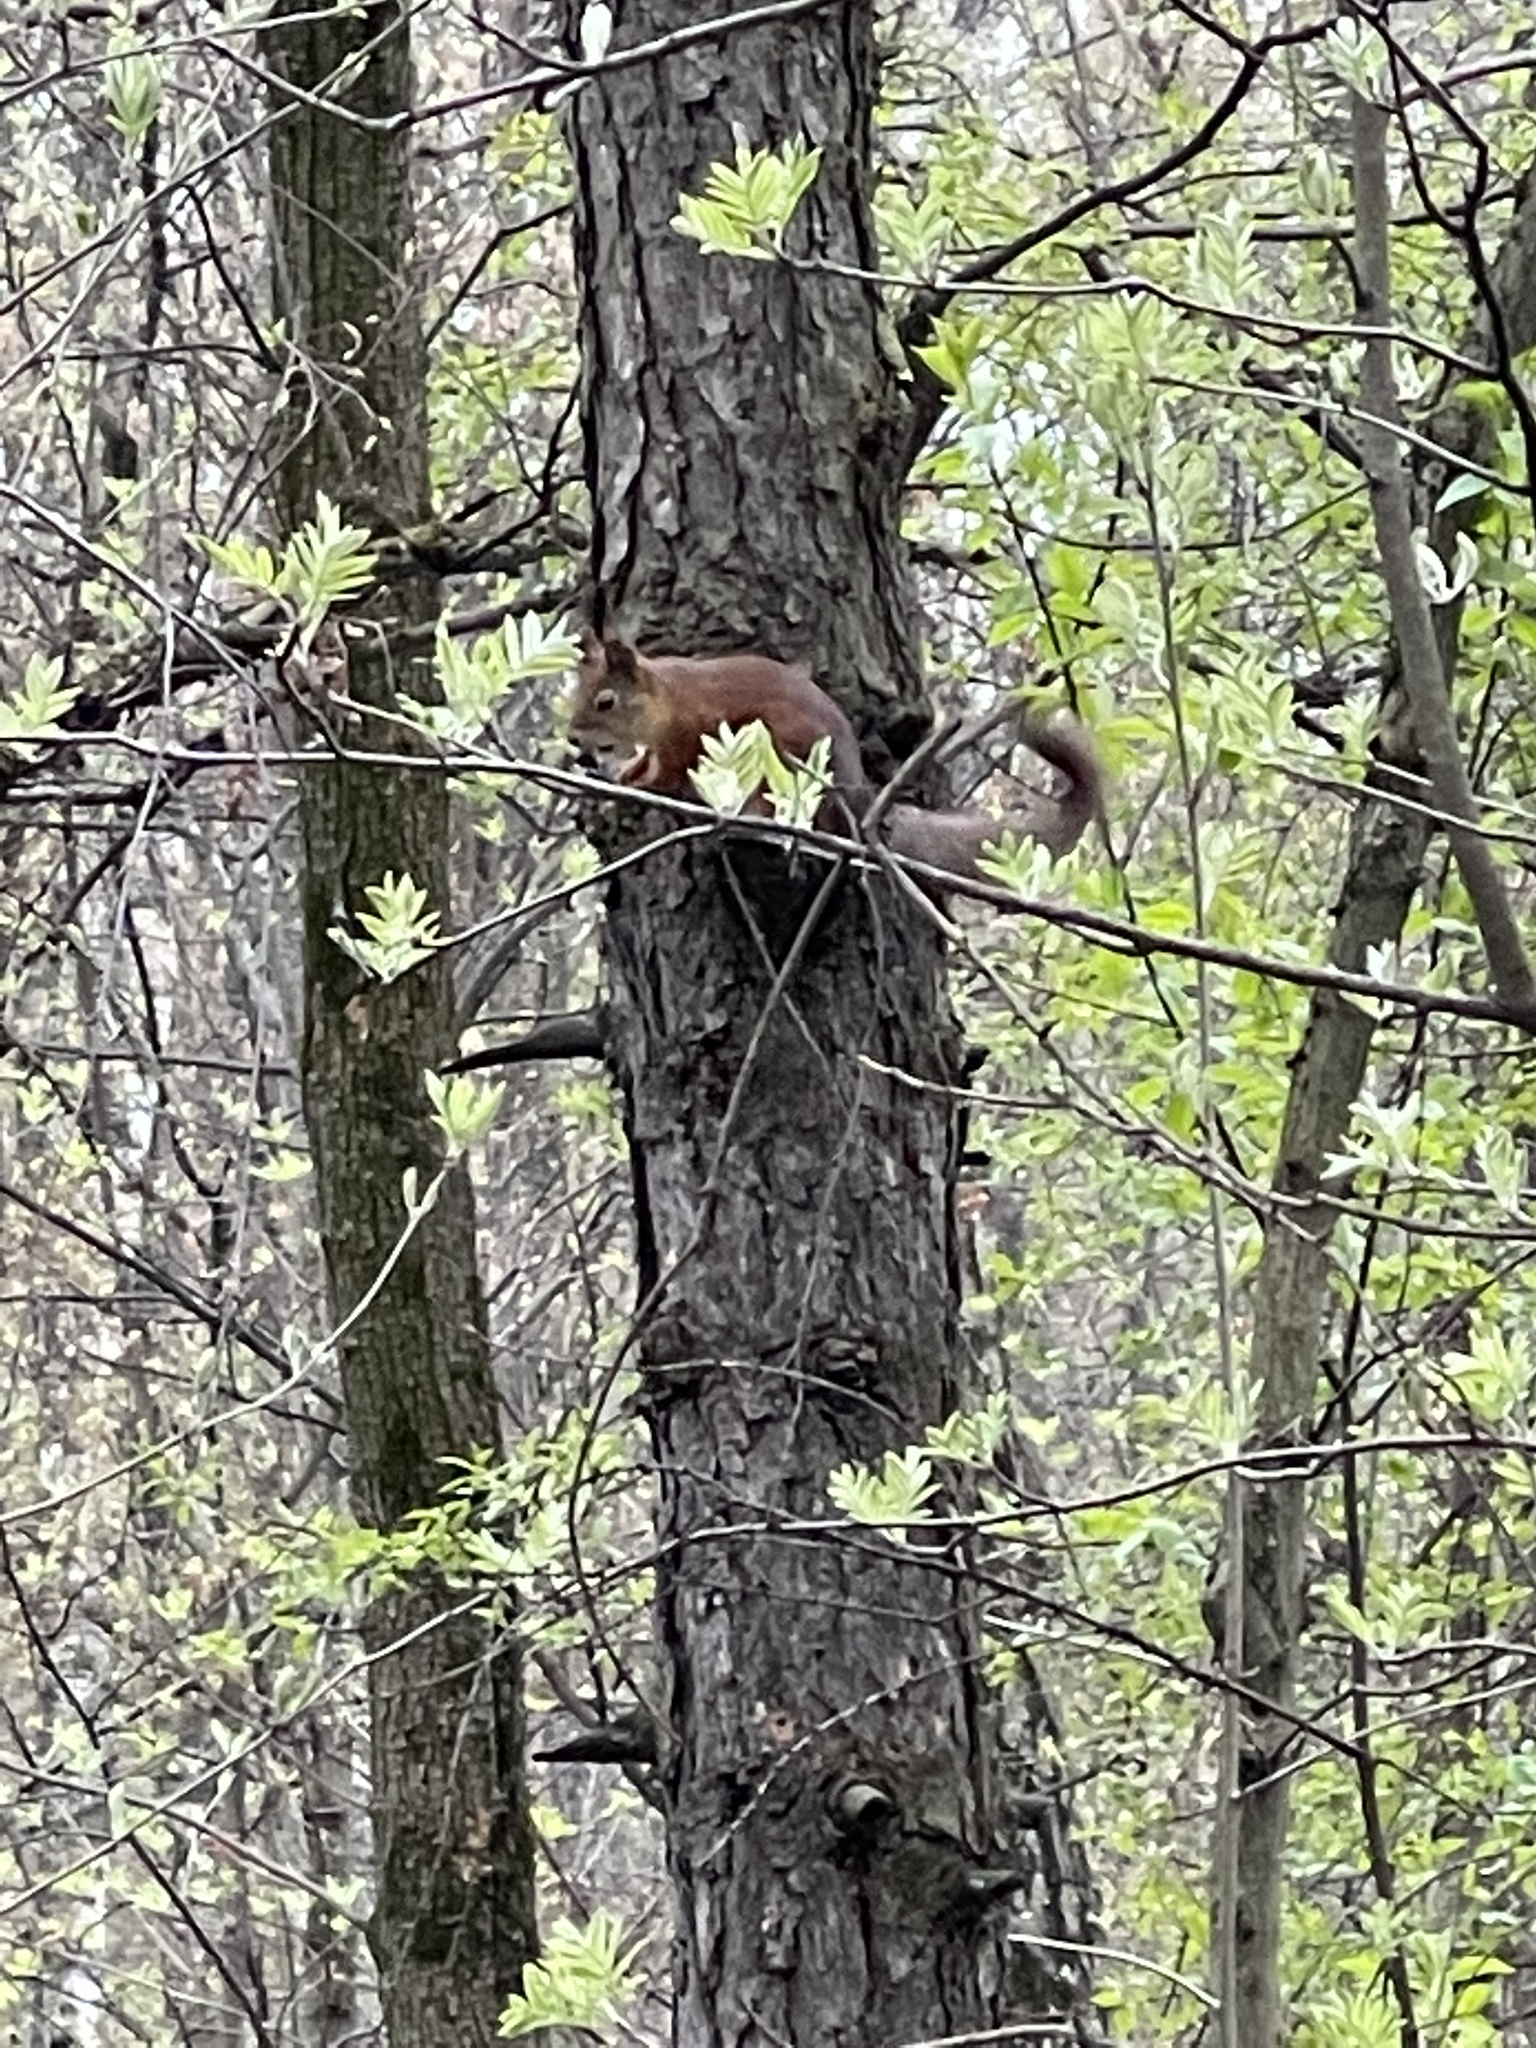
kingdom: Animalia
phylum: Chordata
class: Mammalia
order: Rodentia
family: Sciuridae
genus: Sciurus
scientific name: Sciurus vulgaris
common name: Eurasian red squirrel
